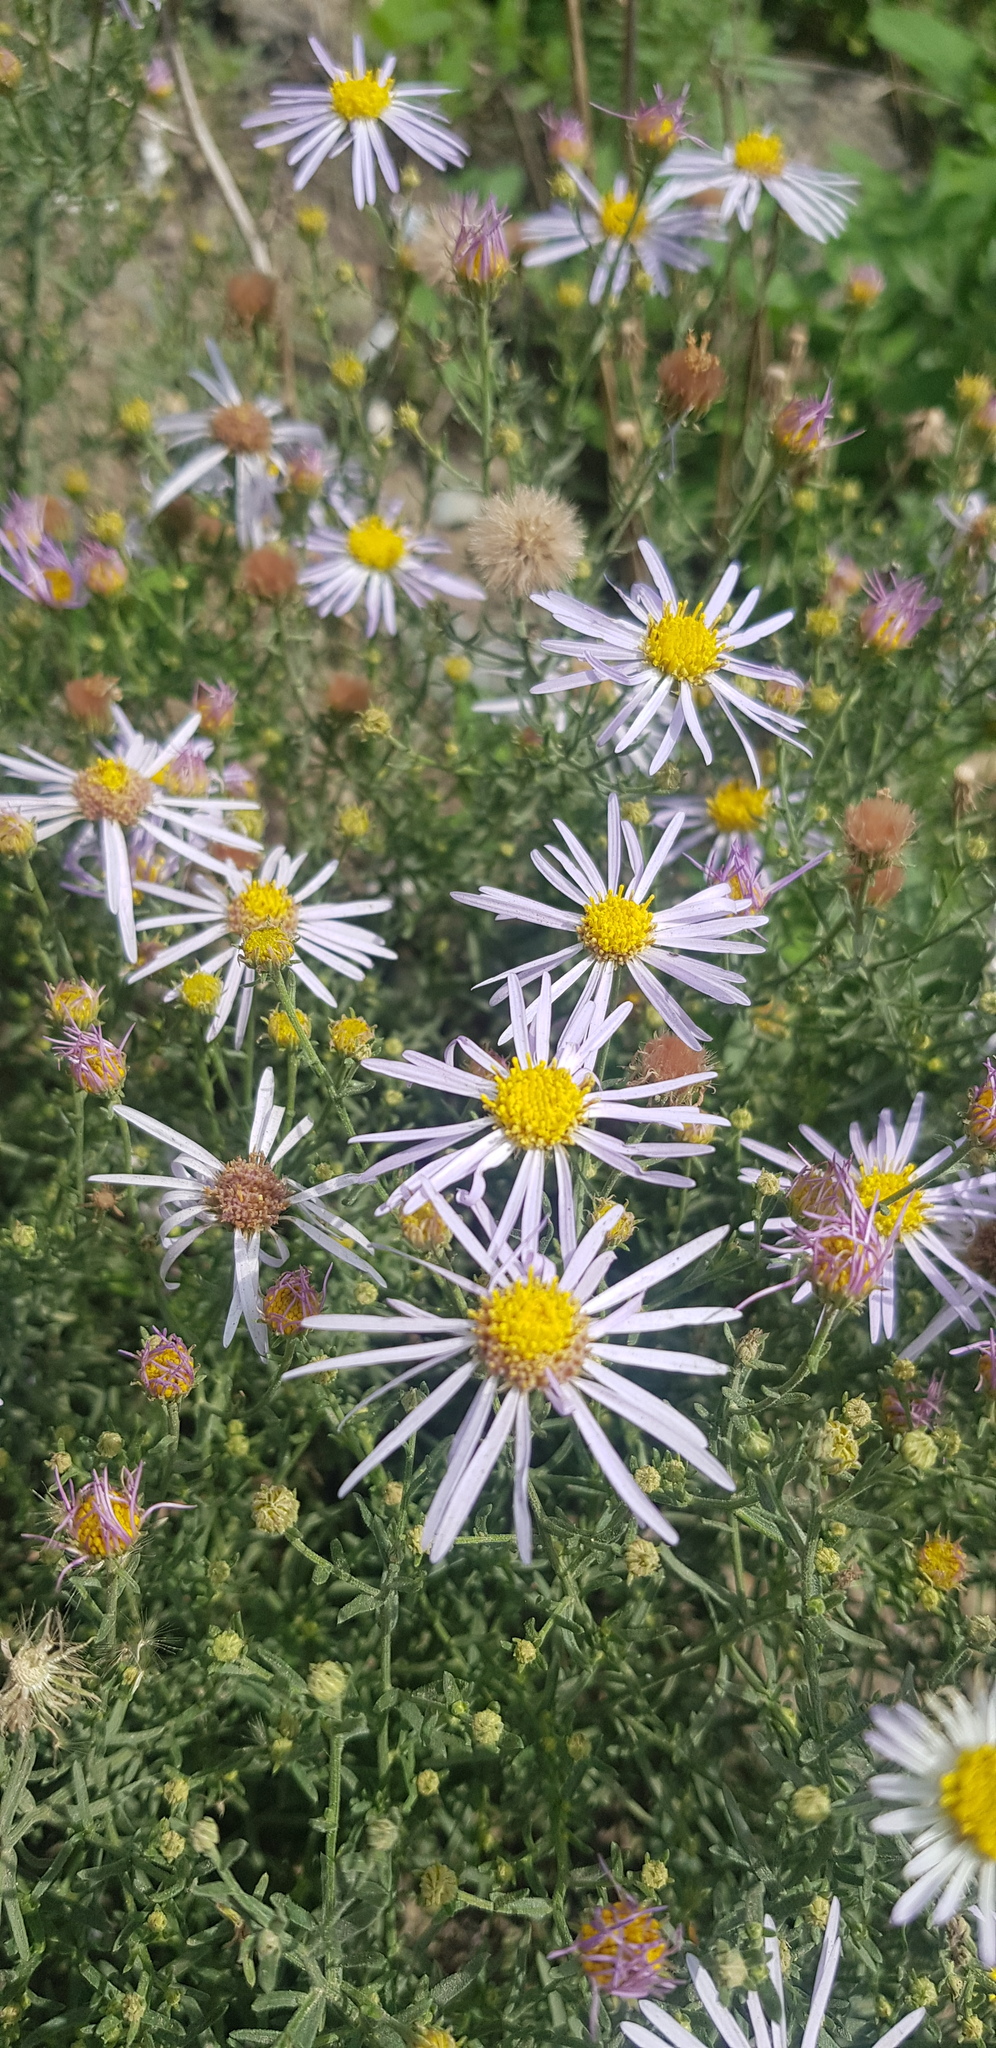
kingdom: Plantae
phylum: Tracheophyta
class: Magnoliopsida
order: Asterales
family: Asteraceae
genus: Heteropappus
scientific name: Heteropappus altaicus
